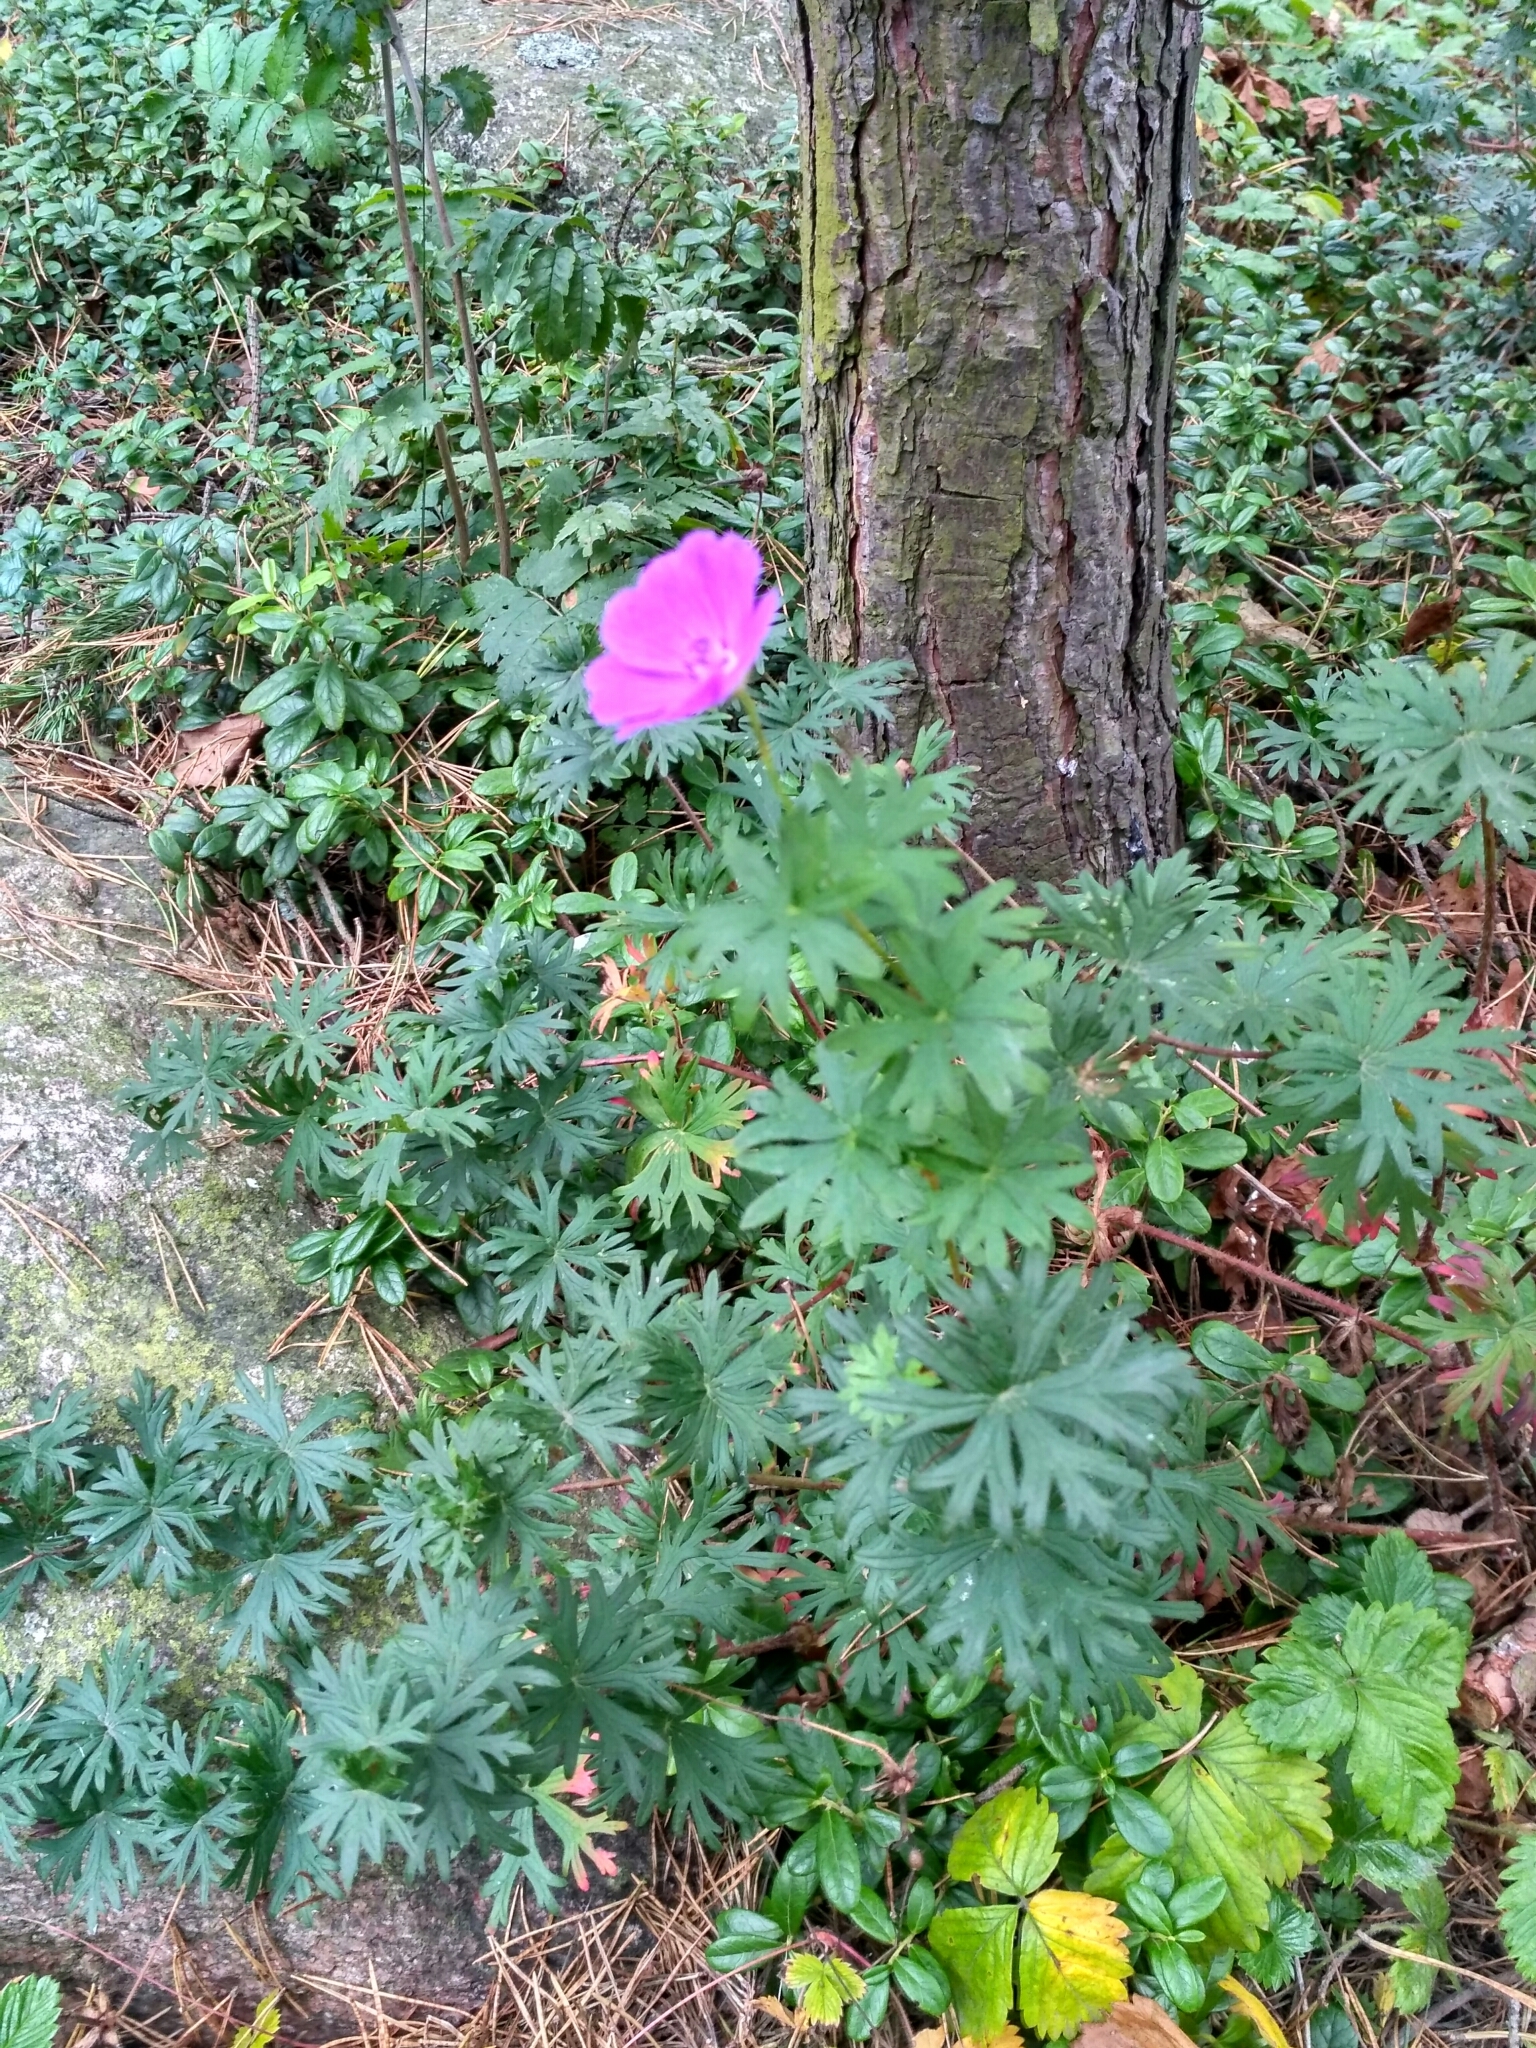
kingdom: Plantae
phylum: Tracheophyta
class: Magnoliopsida
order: Geraniales
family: Geraniaceae
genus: Geranium
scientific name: Geranium sanguineum
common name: Bloody crane's-bill
